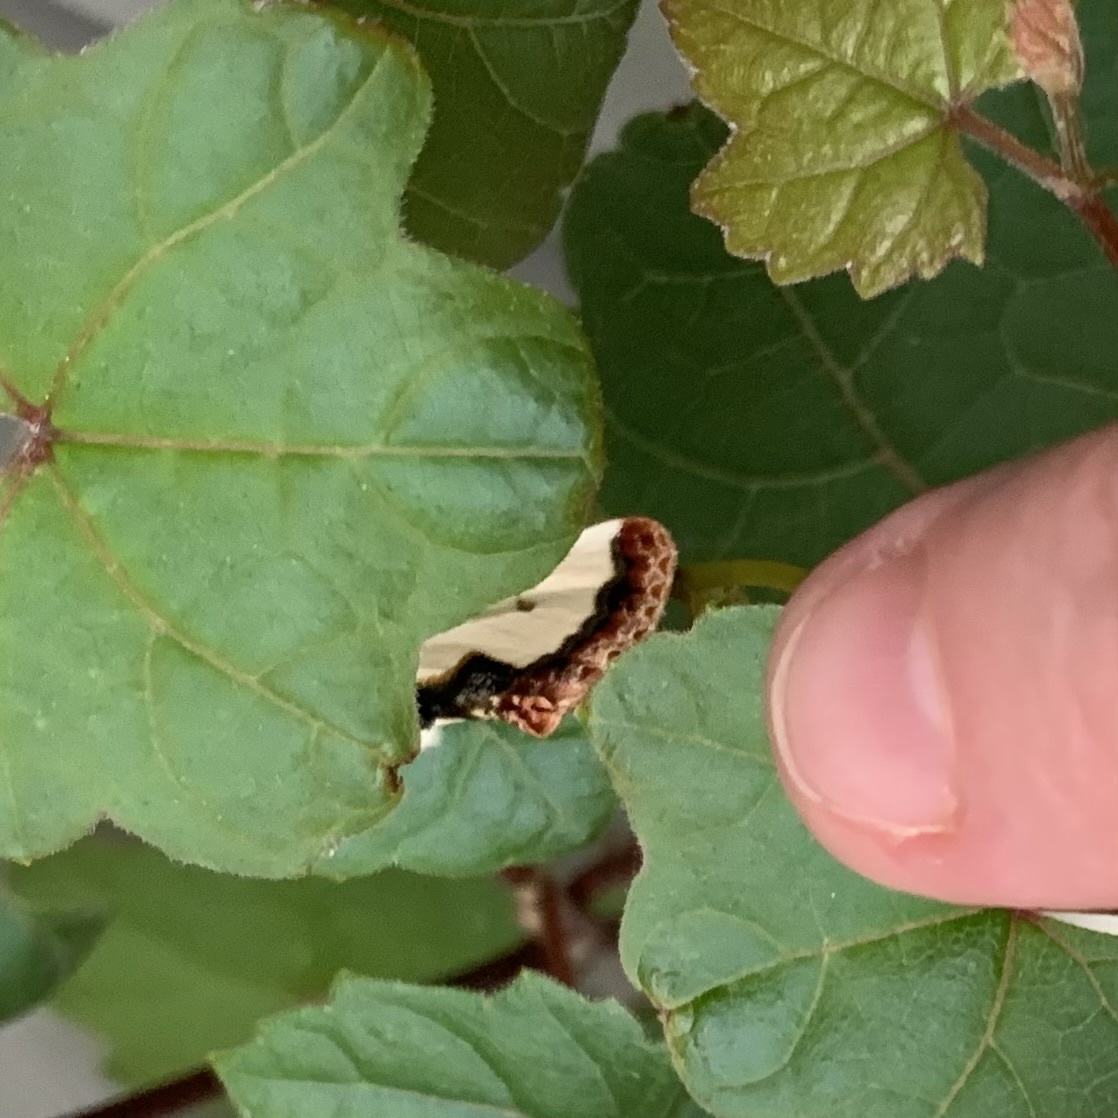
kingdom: Animalia
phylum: Arthropoda
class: Insecta
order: Lepidoptera
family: Noctuidae
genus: Eudryas
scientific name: Eudryas unio
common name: Pearly wood-nymph
